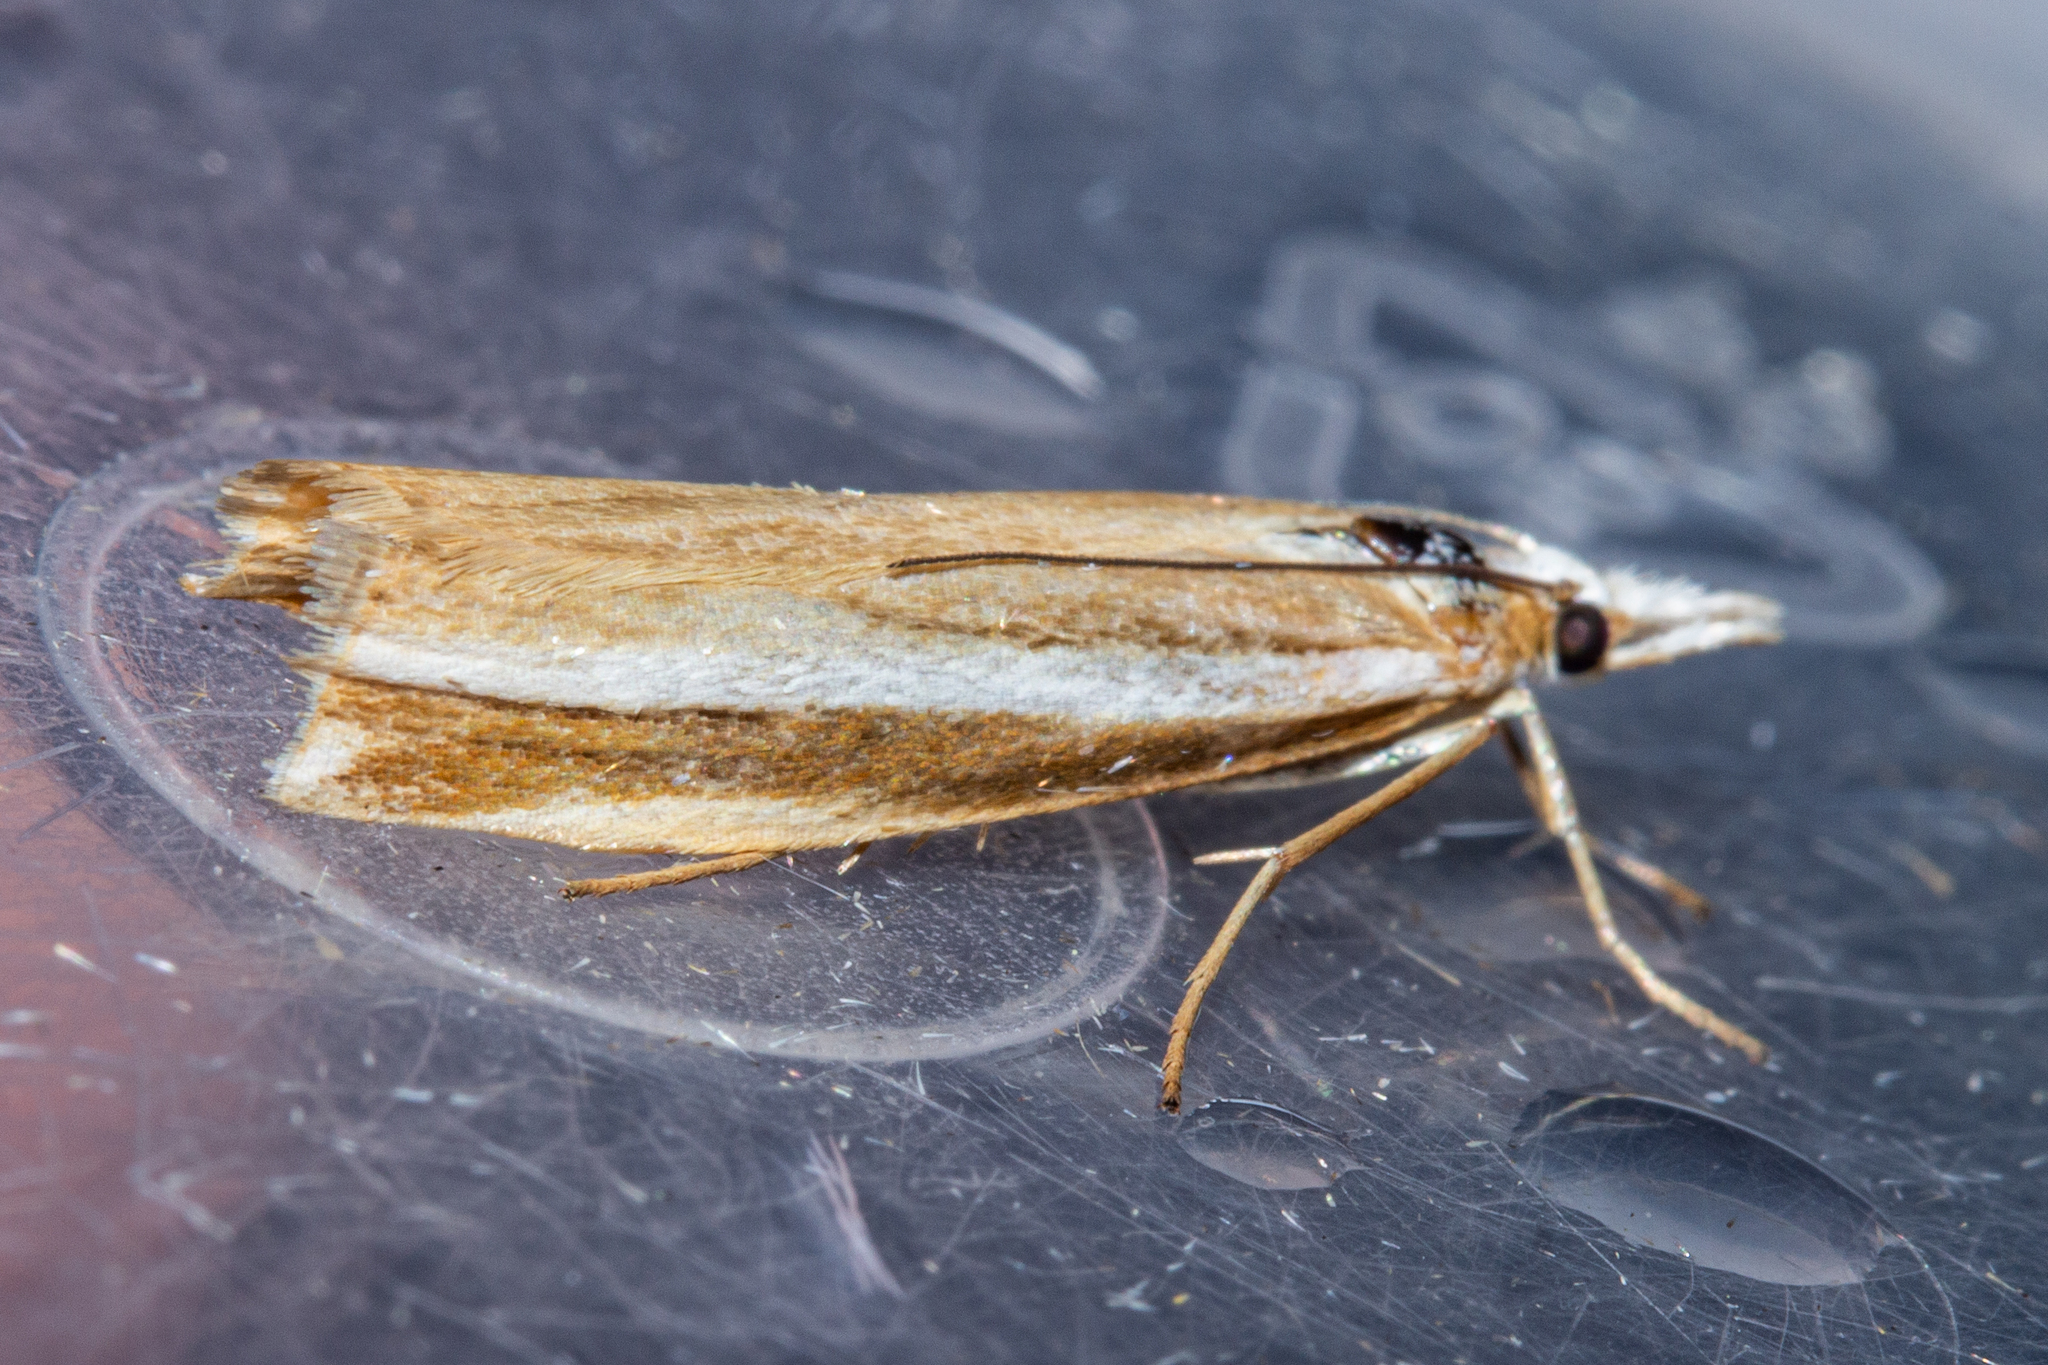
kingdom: Animalia
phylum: Arthropoda
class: Insecta
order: Lepidoptera
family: Crambidae
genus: Orocrambus
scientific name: Orocrambus apicellus
